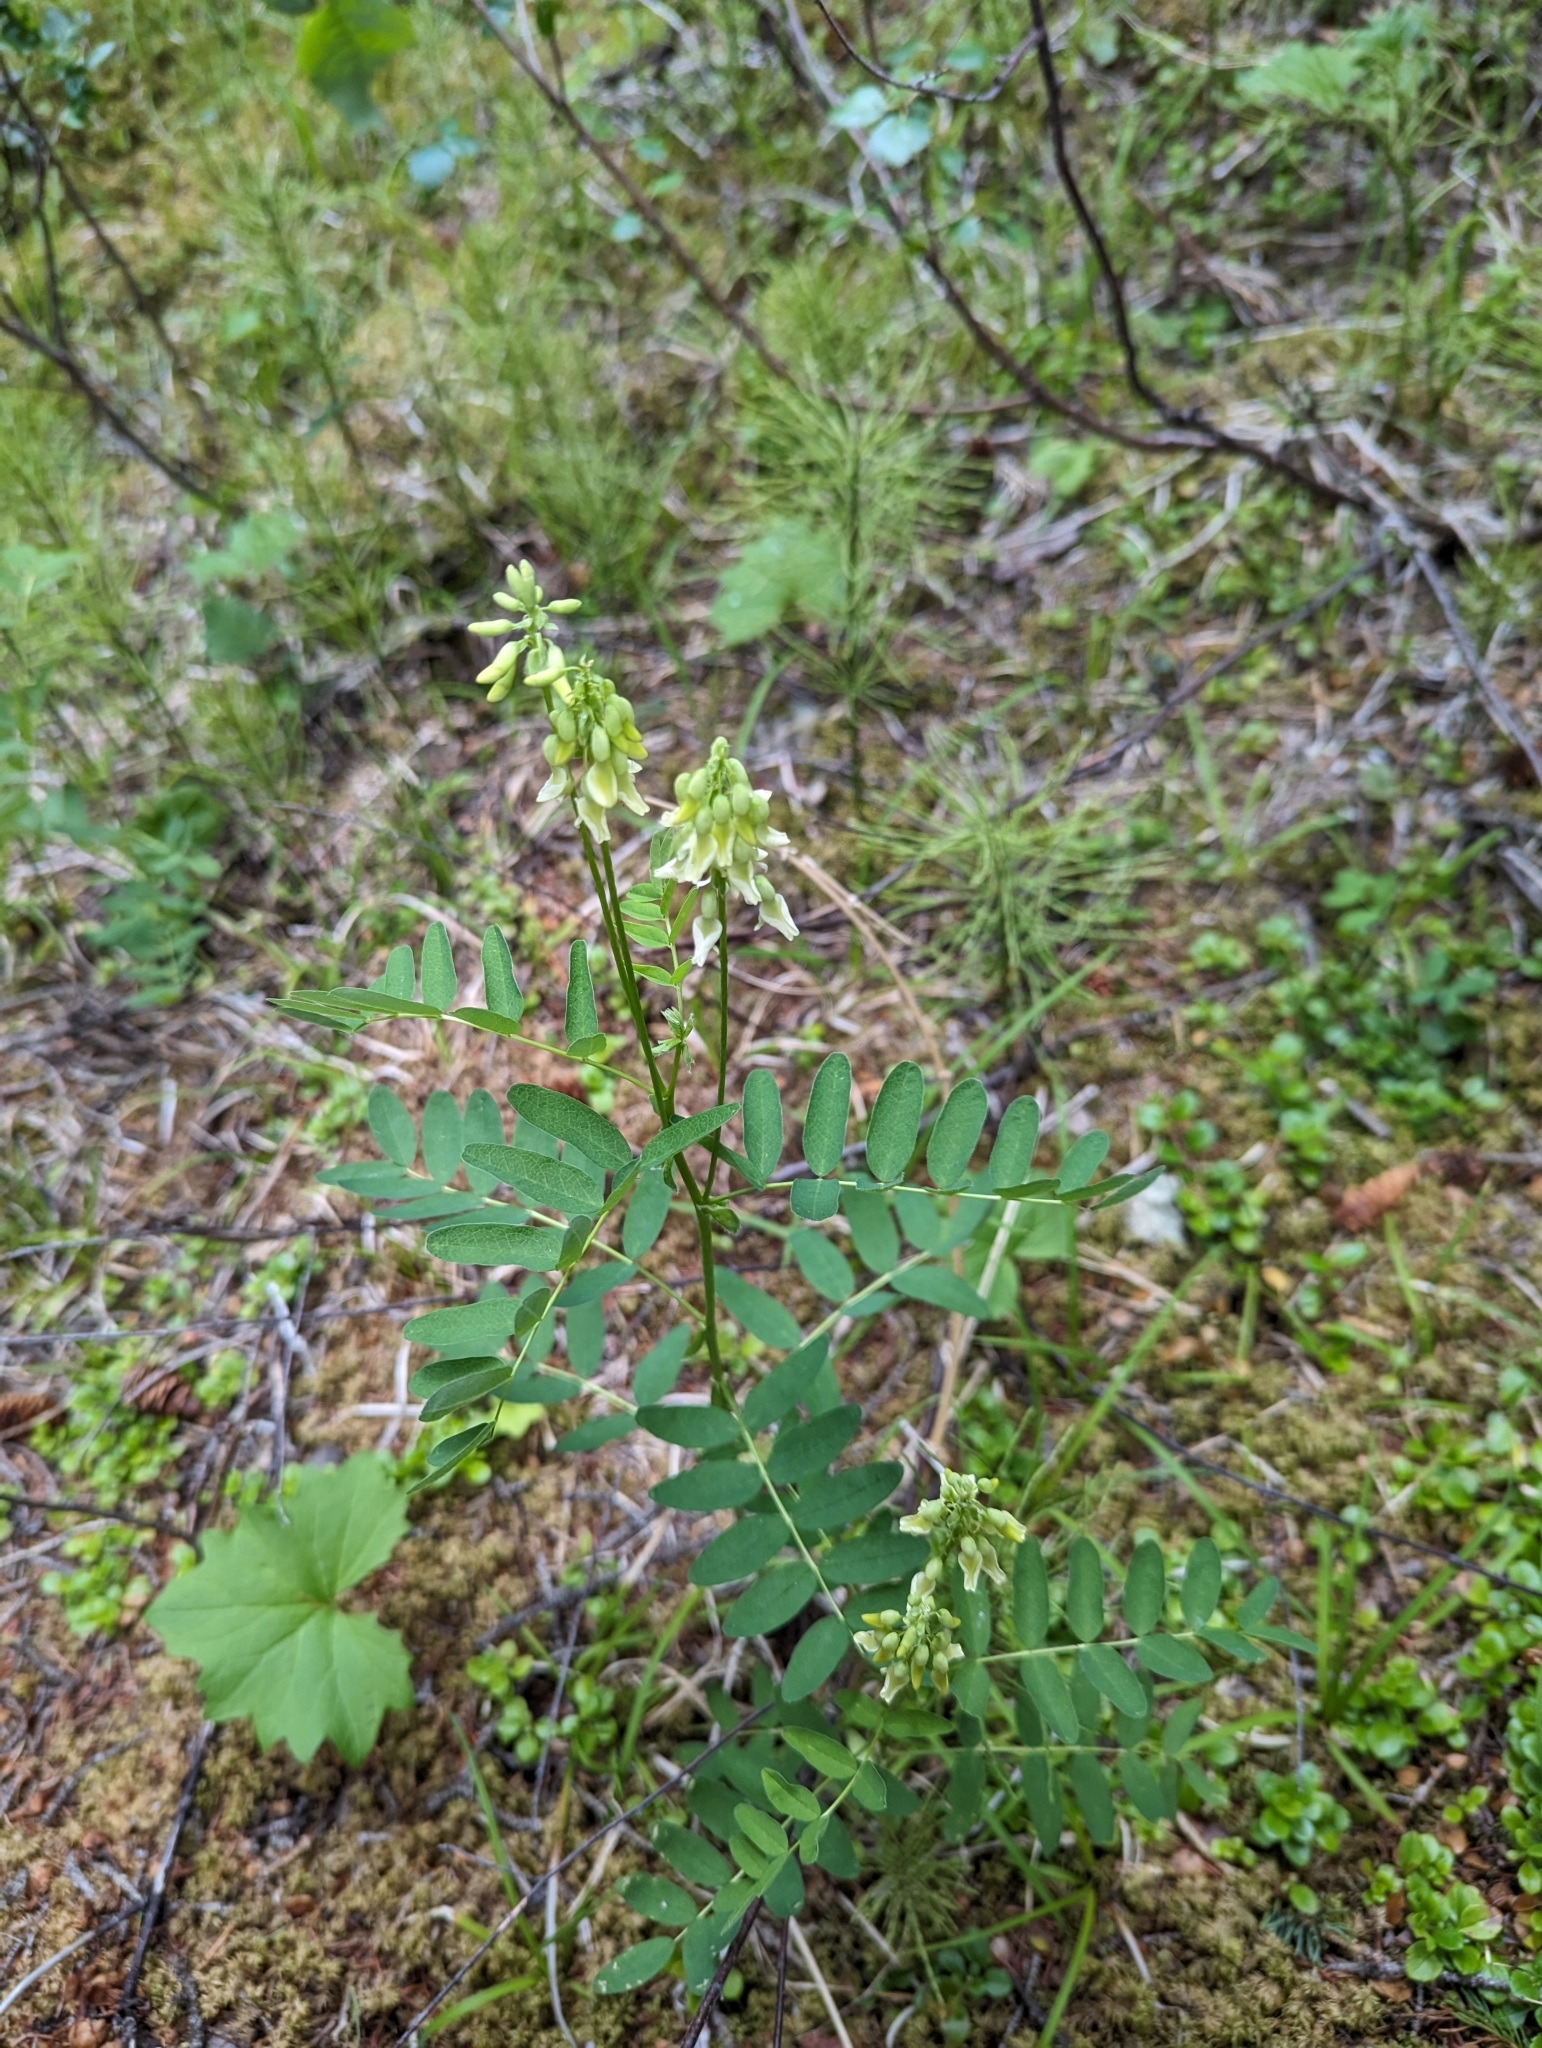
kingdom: Plantae
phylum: Tracheophyta
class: Magnoliopsida
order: Fabales
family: Fabaceae
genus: Hedysarum
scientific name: Hedysarum sulphurescens
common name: Sulphur hedysarum
